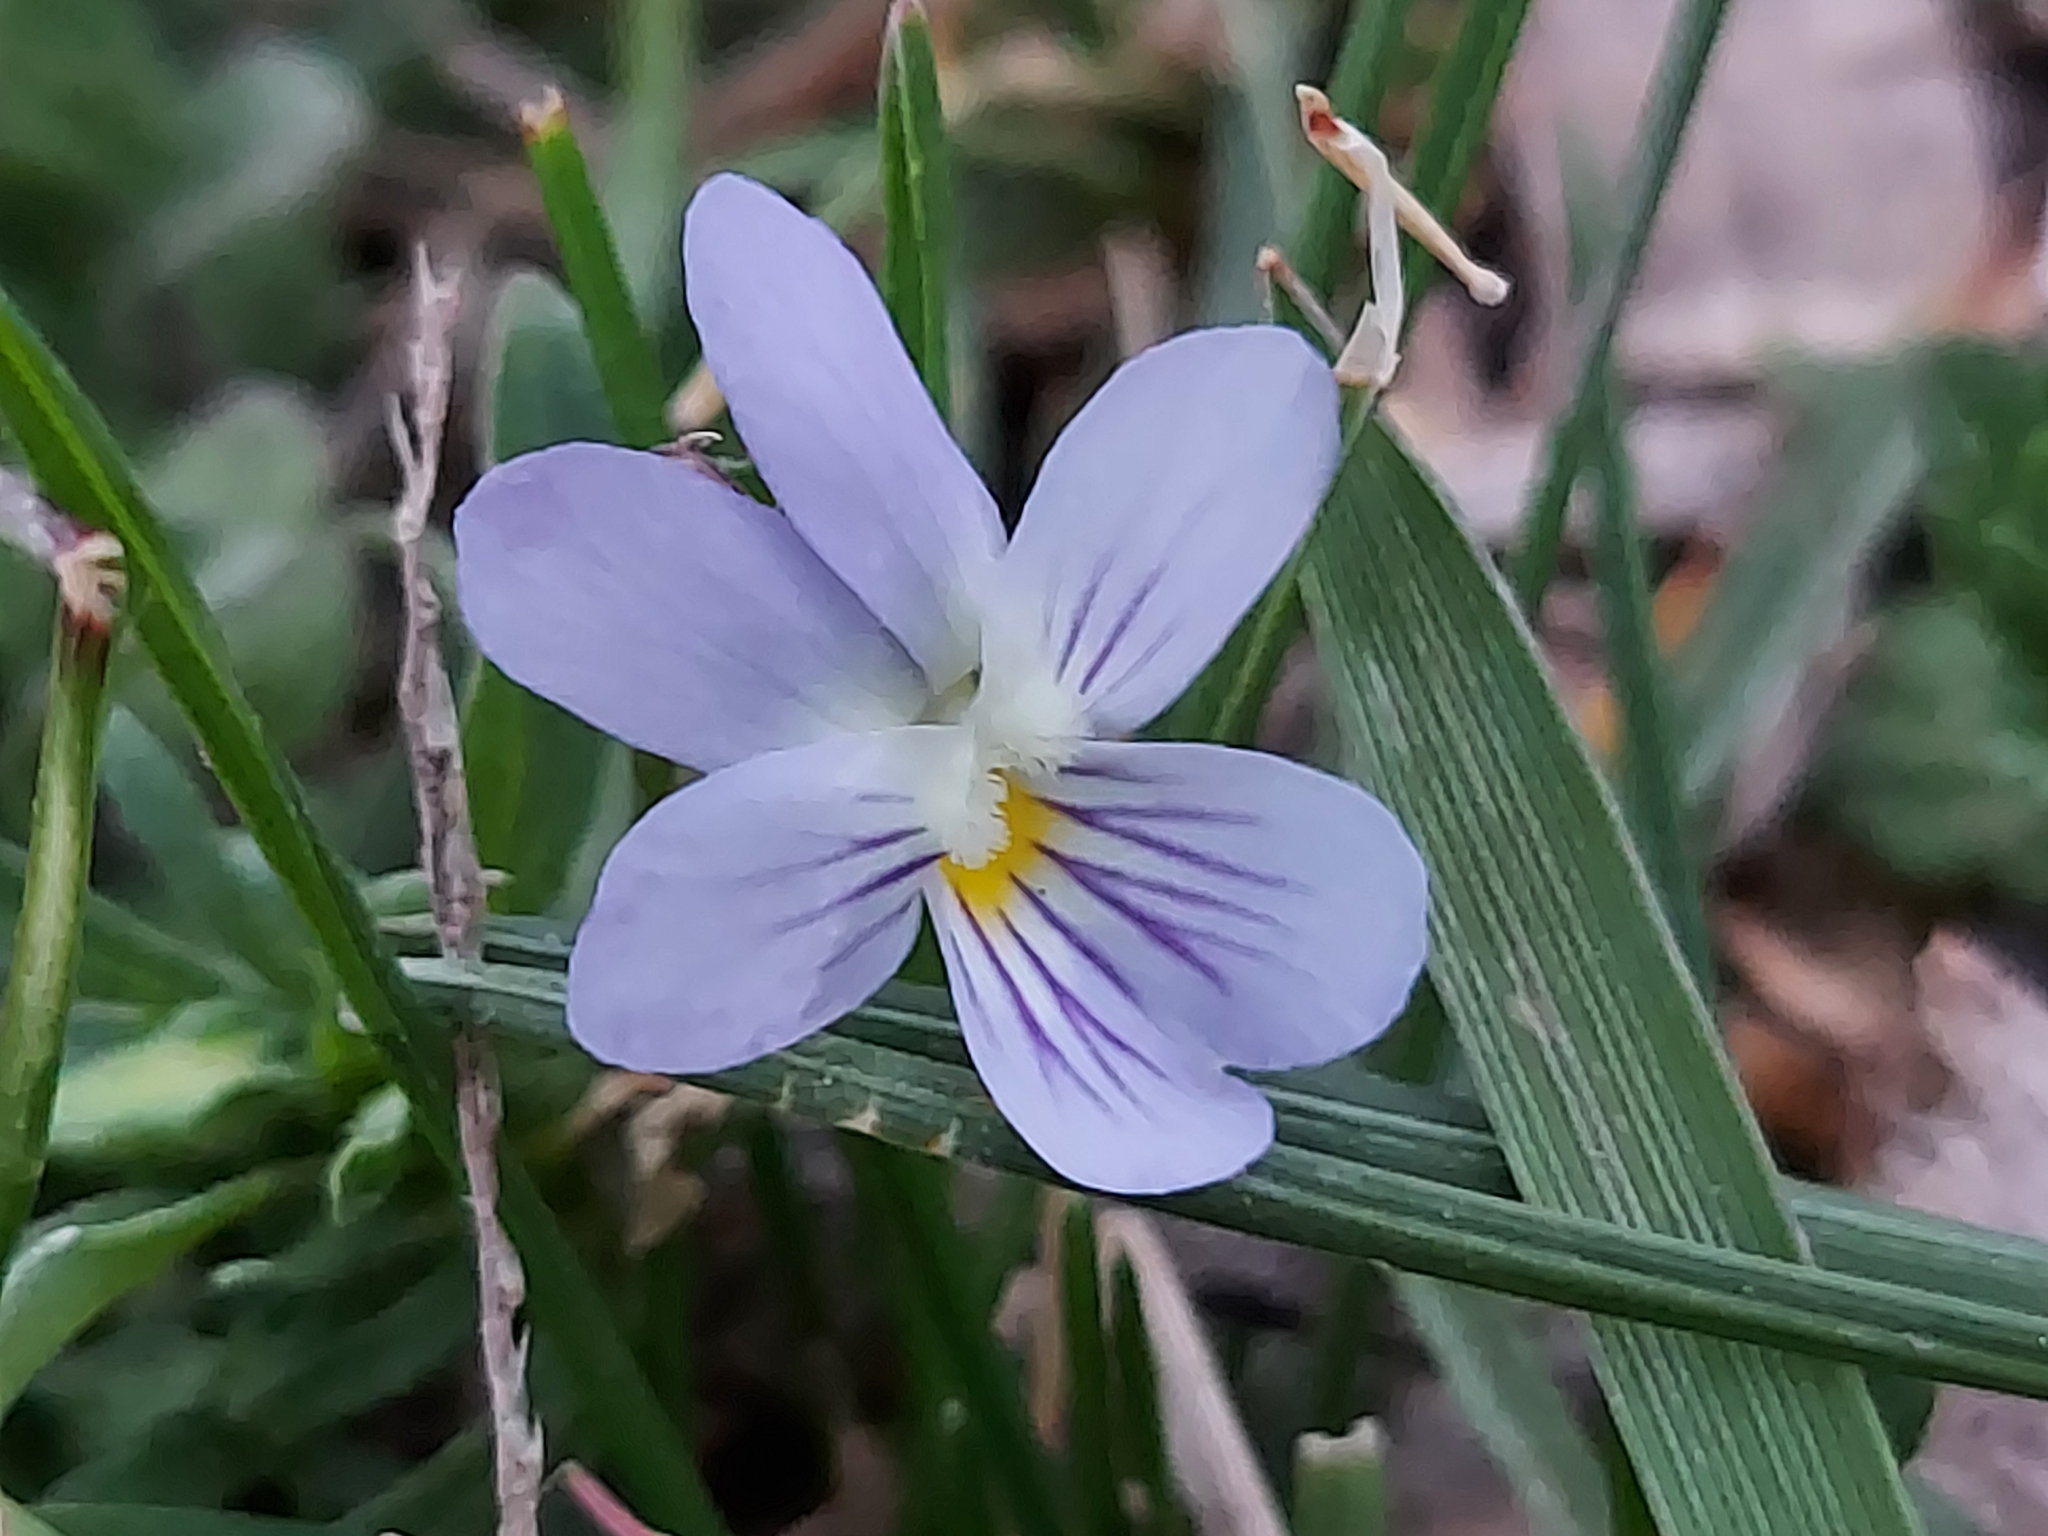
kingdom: Plantae
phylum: Tracheophyta
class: Magnoliopsida
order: Malpighiales
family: Violaceae
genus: Viola
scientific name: Viola rafinesquei
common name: American field pansy
